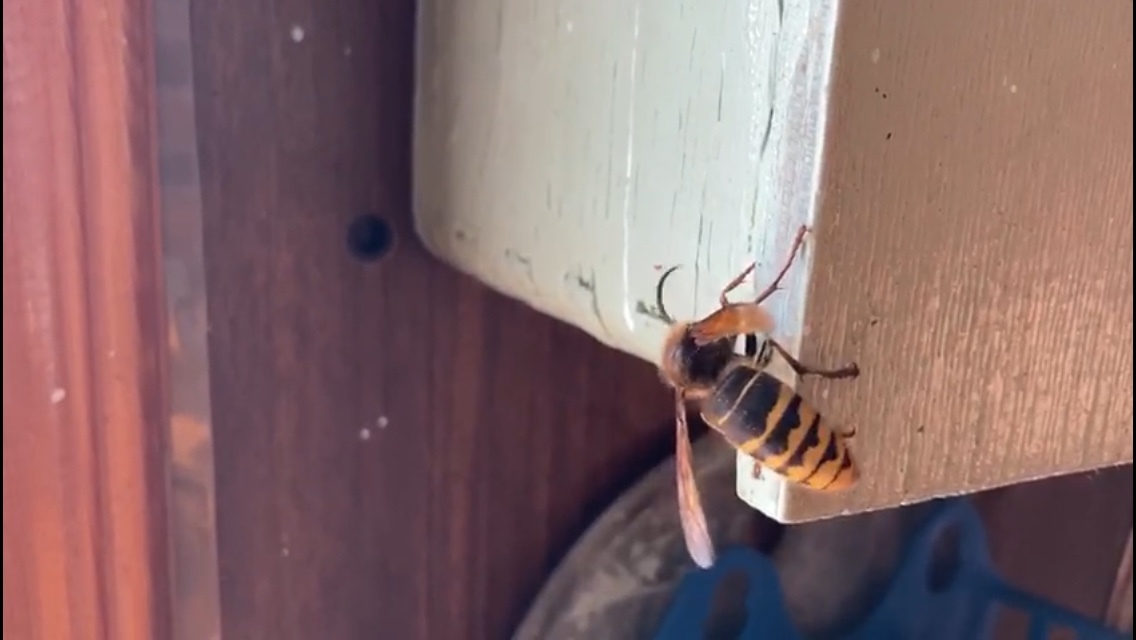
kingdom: Animalia
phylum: Arthropoda
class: Insecta
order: Hymenoptera
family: Vespidae
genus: Vespa
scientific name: Vespa crabro
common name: Hornet
